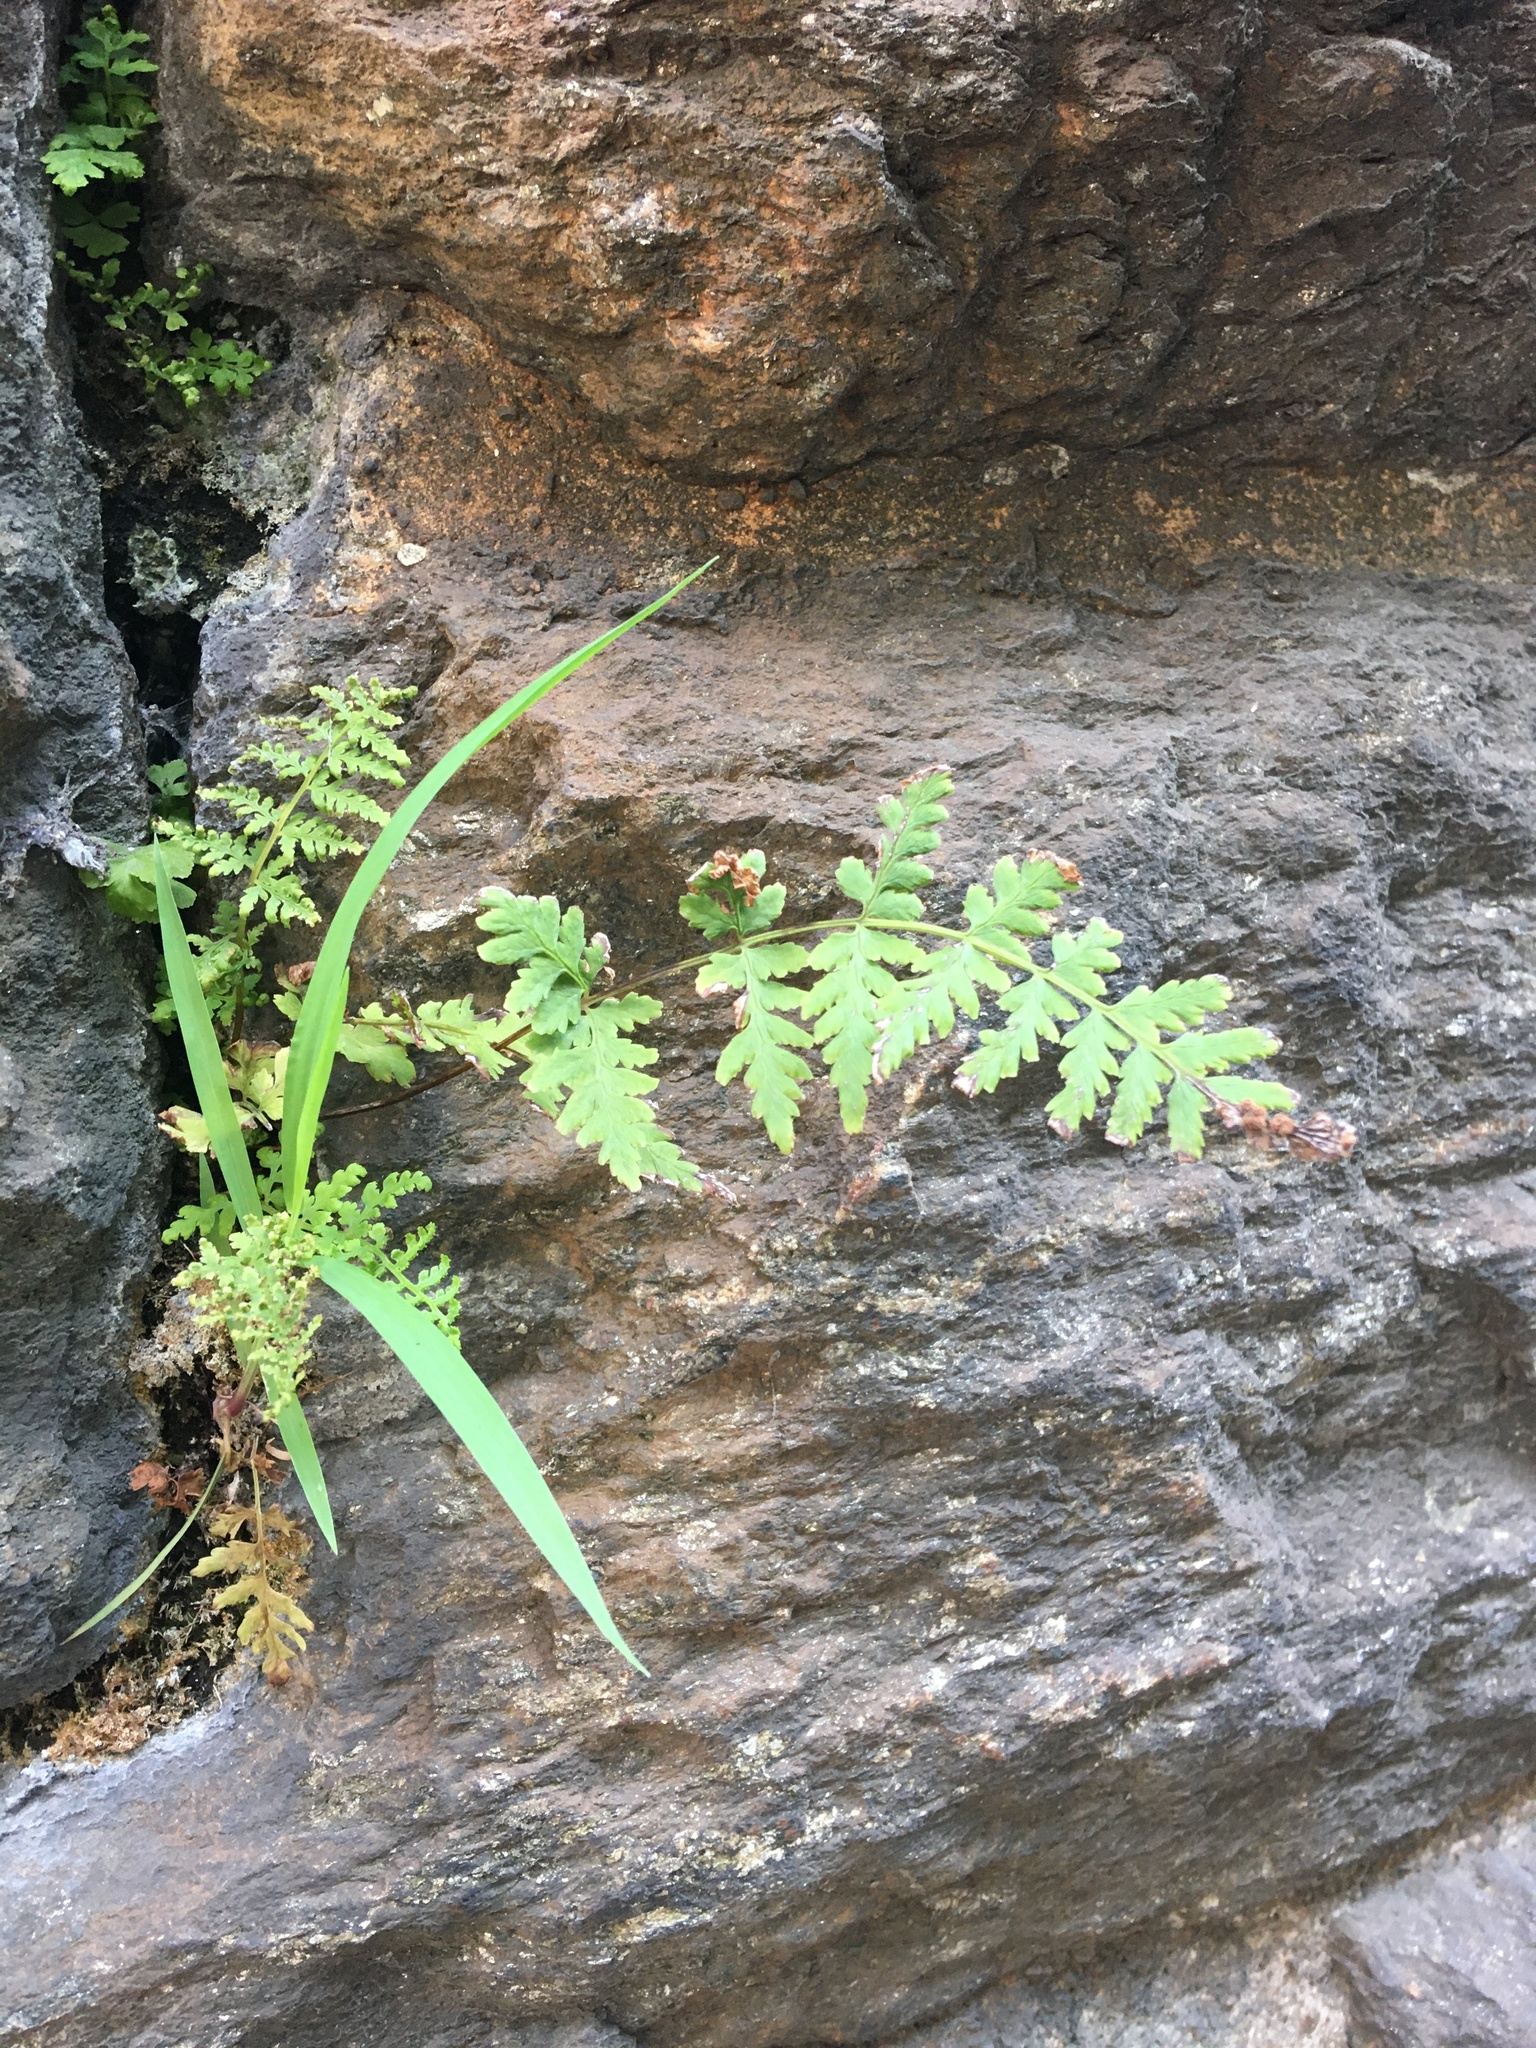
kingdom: Plantae
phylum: Tracheophyta
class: Polypodiopsida
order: Polypodiales
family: Woodsiaceae
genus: Physematium
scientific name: Physematium obtusum
